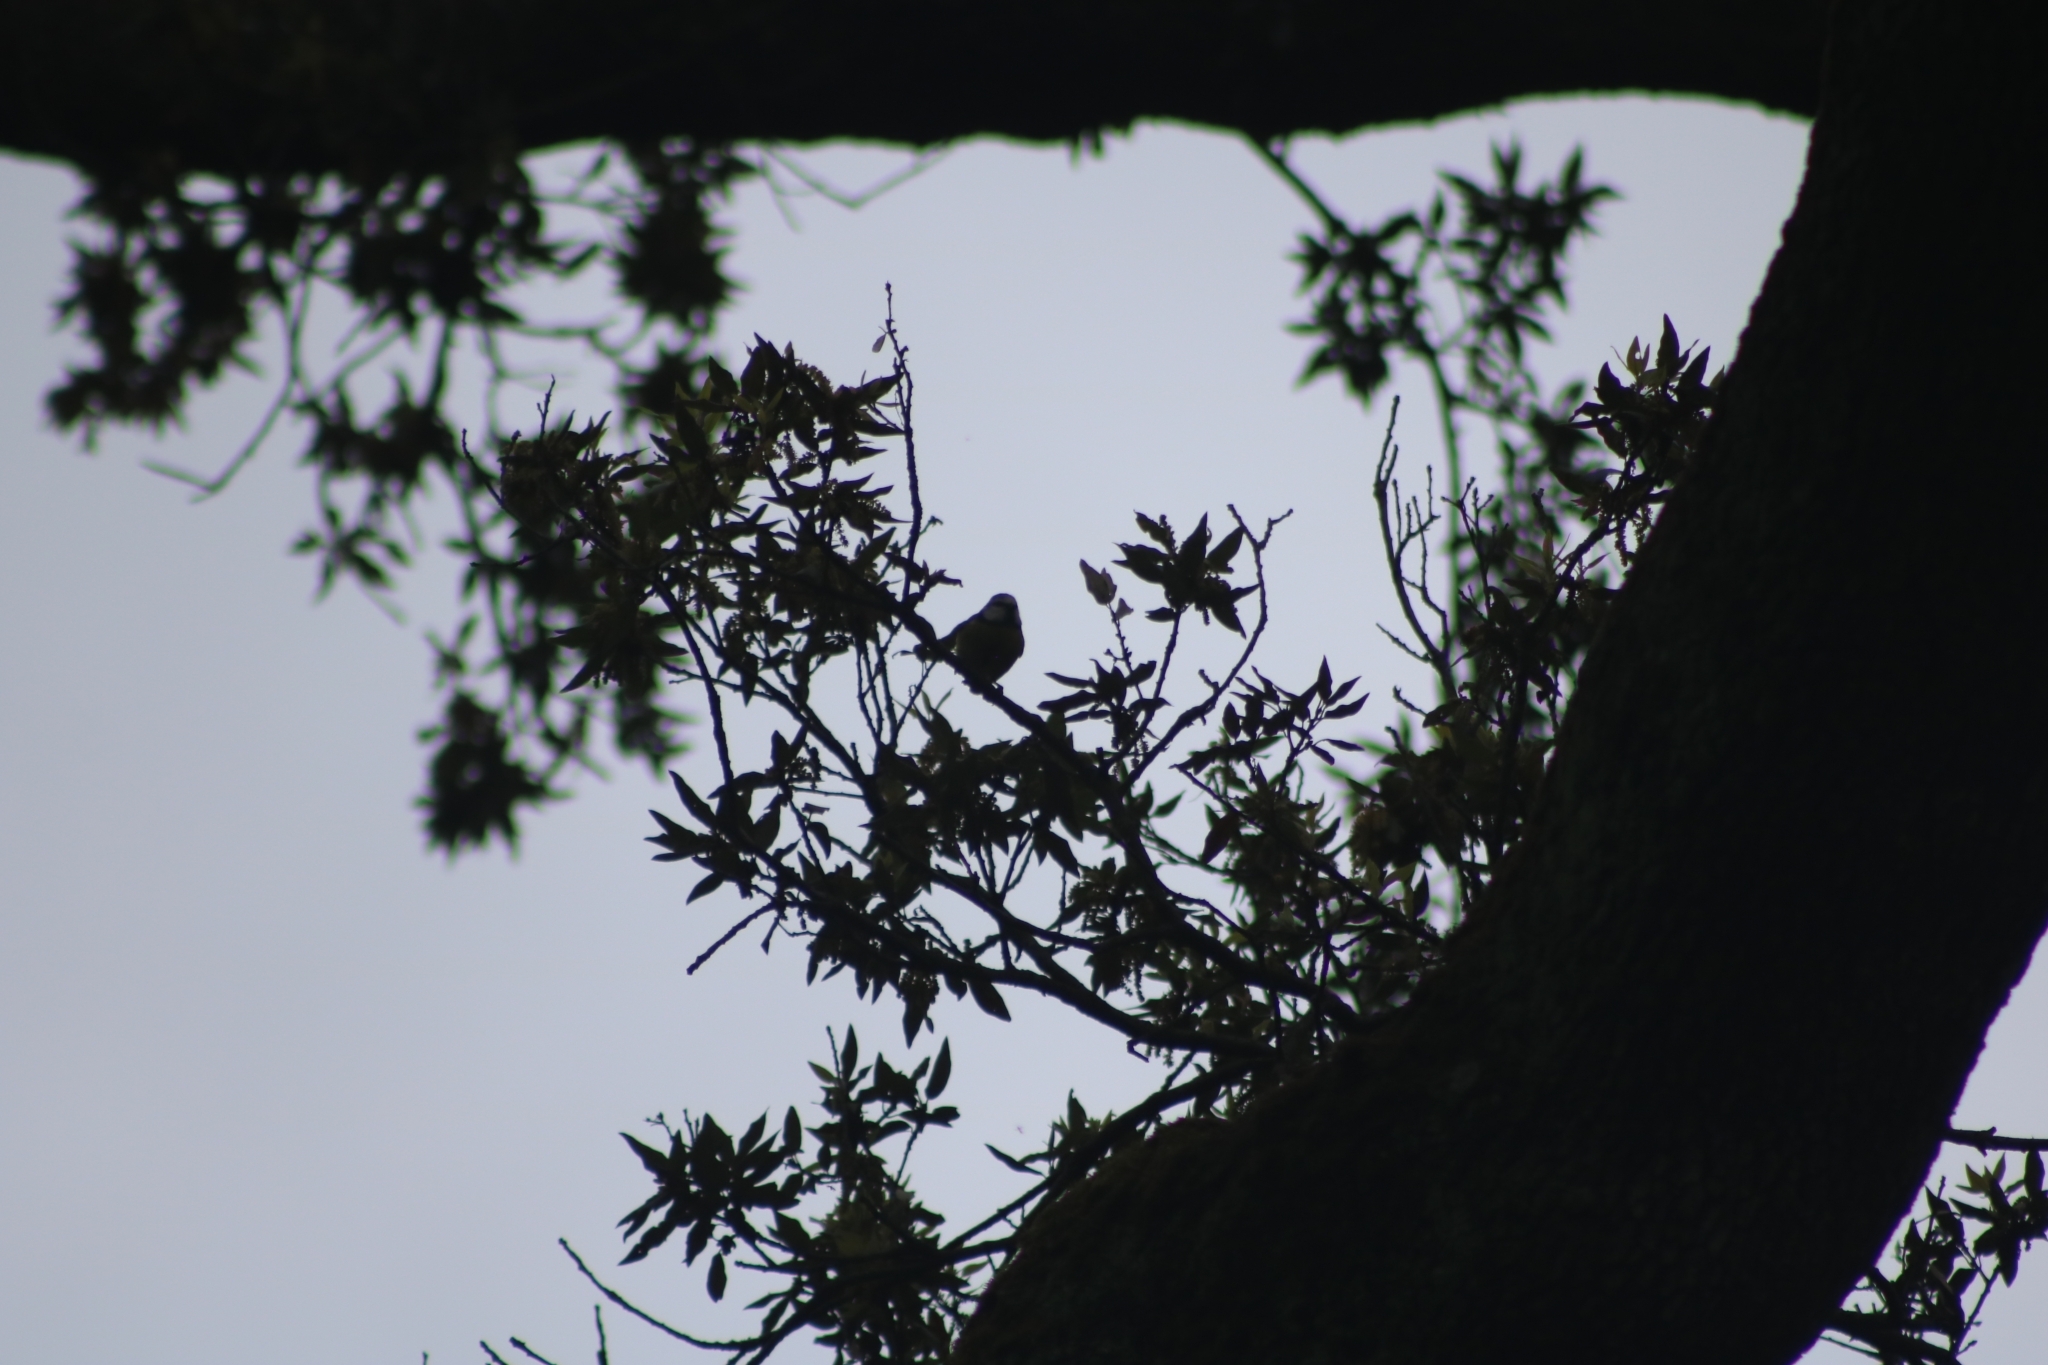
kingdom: Animalia
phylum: Chordata
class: Aves
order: Passeriformes
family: Paridae
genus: Cyanistes
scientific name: Cyanistes caeruleus
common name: Eurasian blue tit
